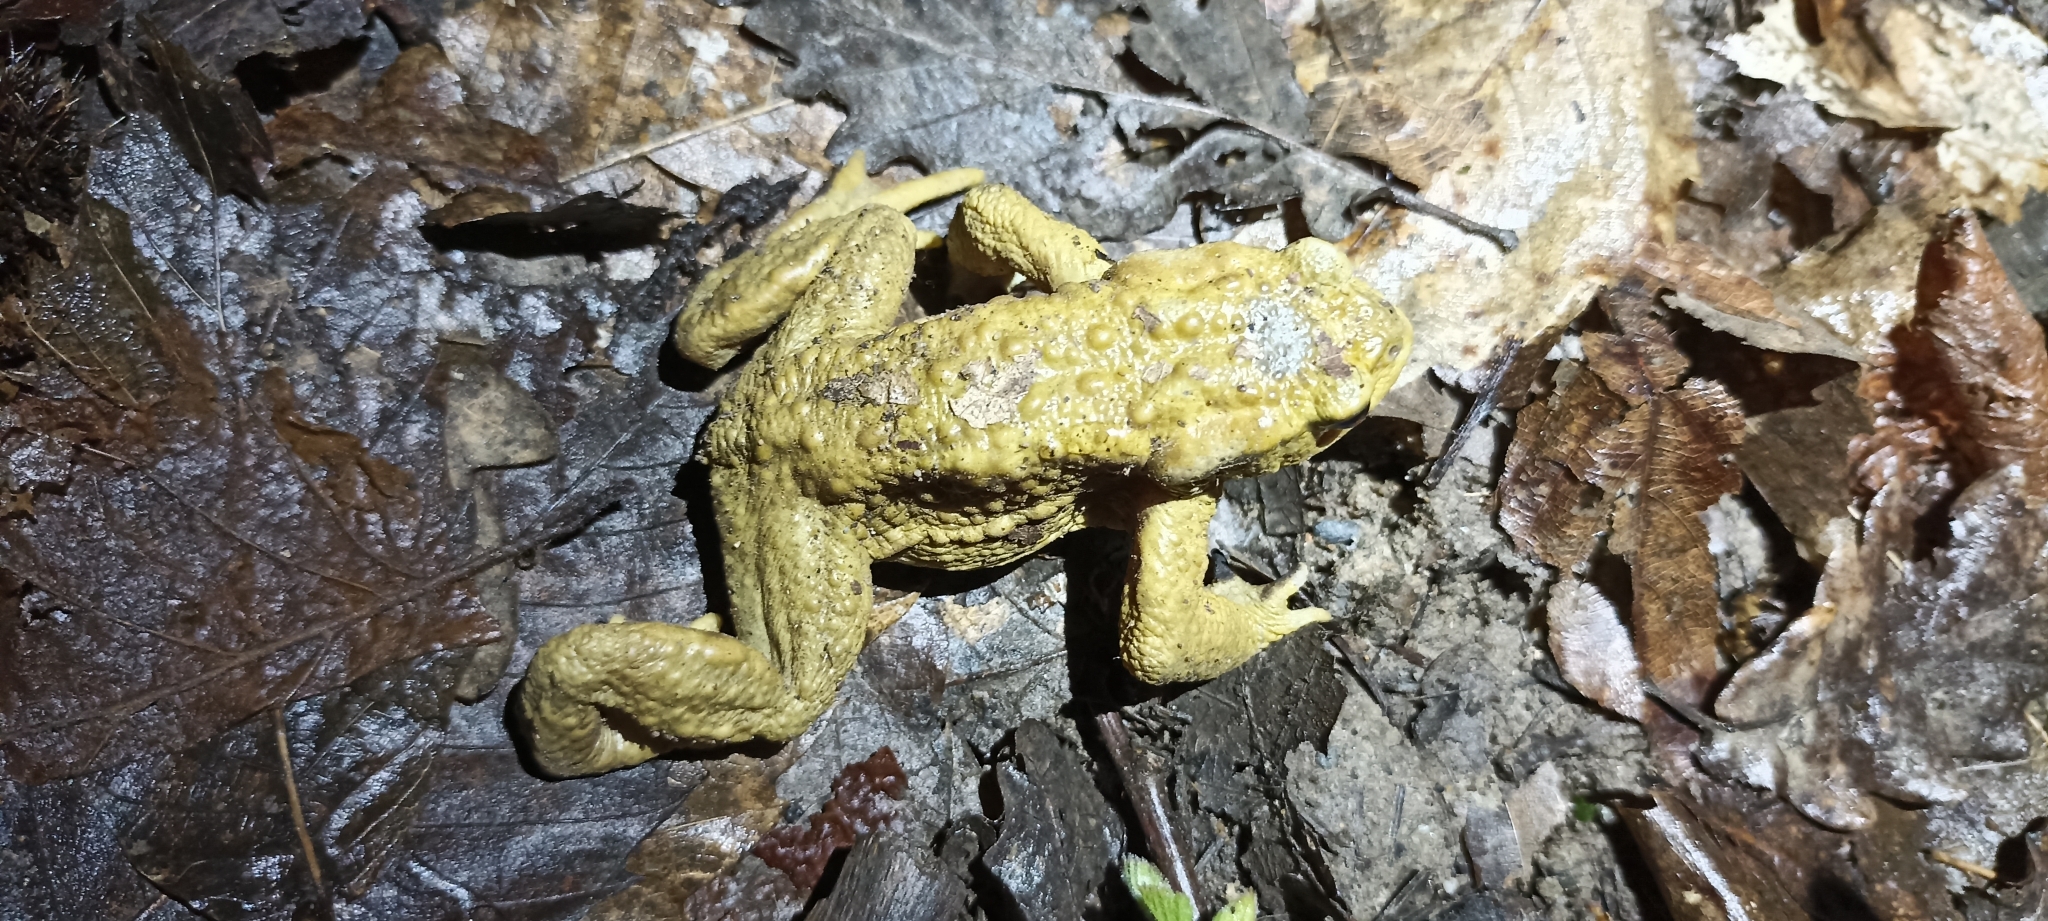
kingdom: Animalia
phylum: Chordata
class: Amphibia
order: Anura
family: Bufonidae
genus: Bufo
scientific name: Bufo spinosus
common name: Western common toad
